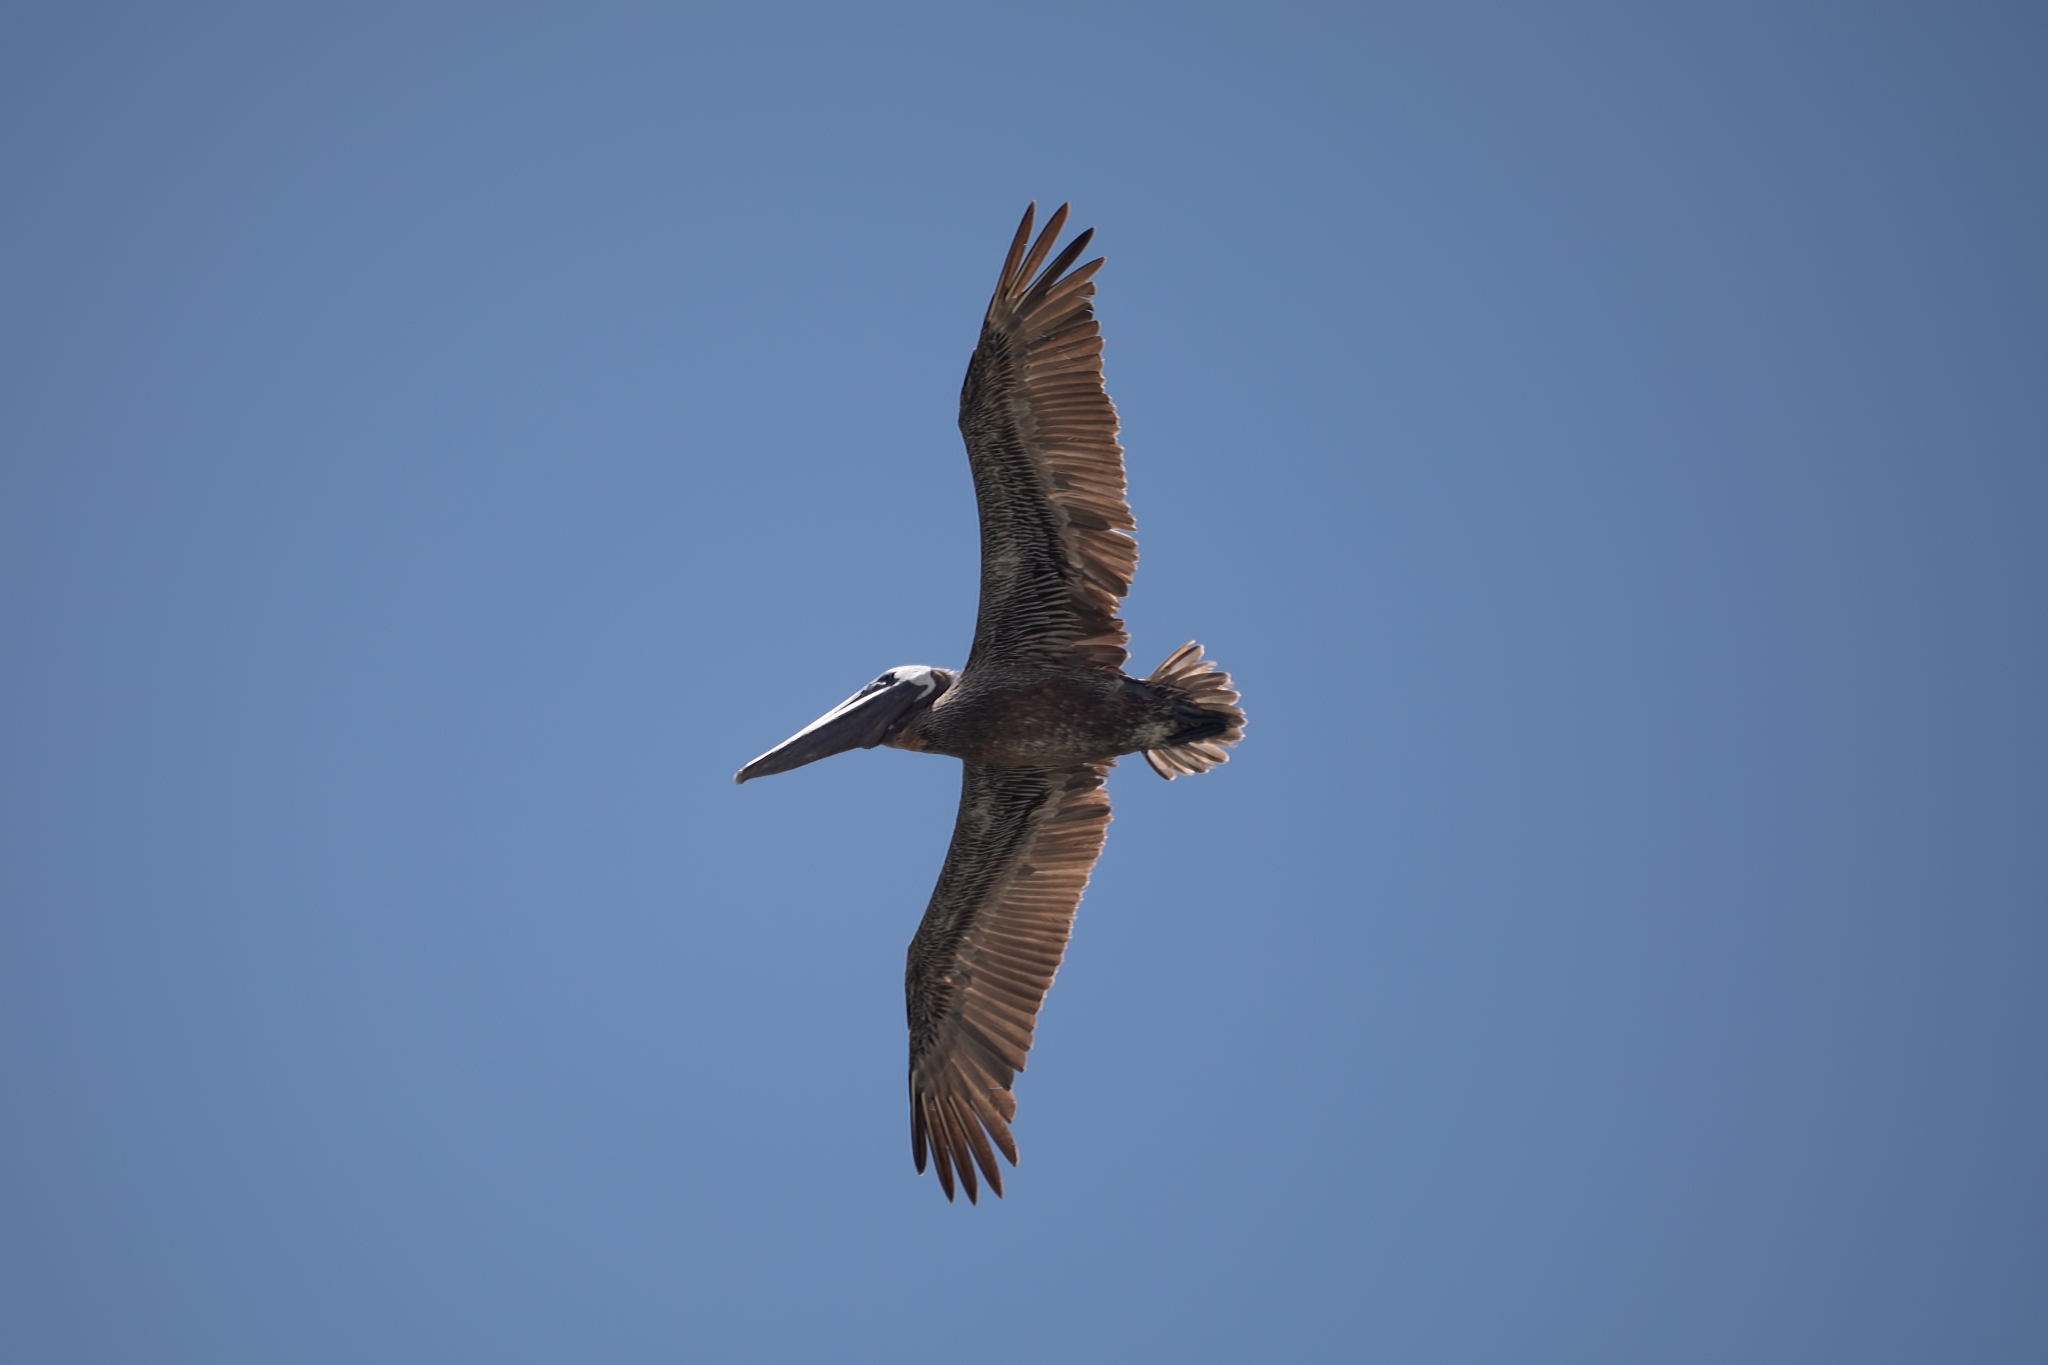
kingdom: Animalia
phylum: Chordata
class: Aves
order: Pelecaniformes
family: Pelecanidae
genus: Pelecanus
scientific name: Pelecanus occidentalis
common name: Brown pelican
